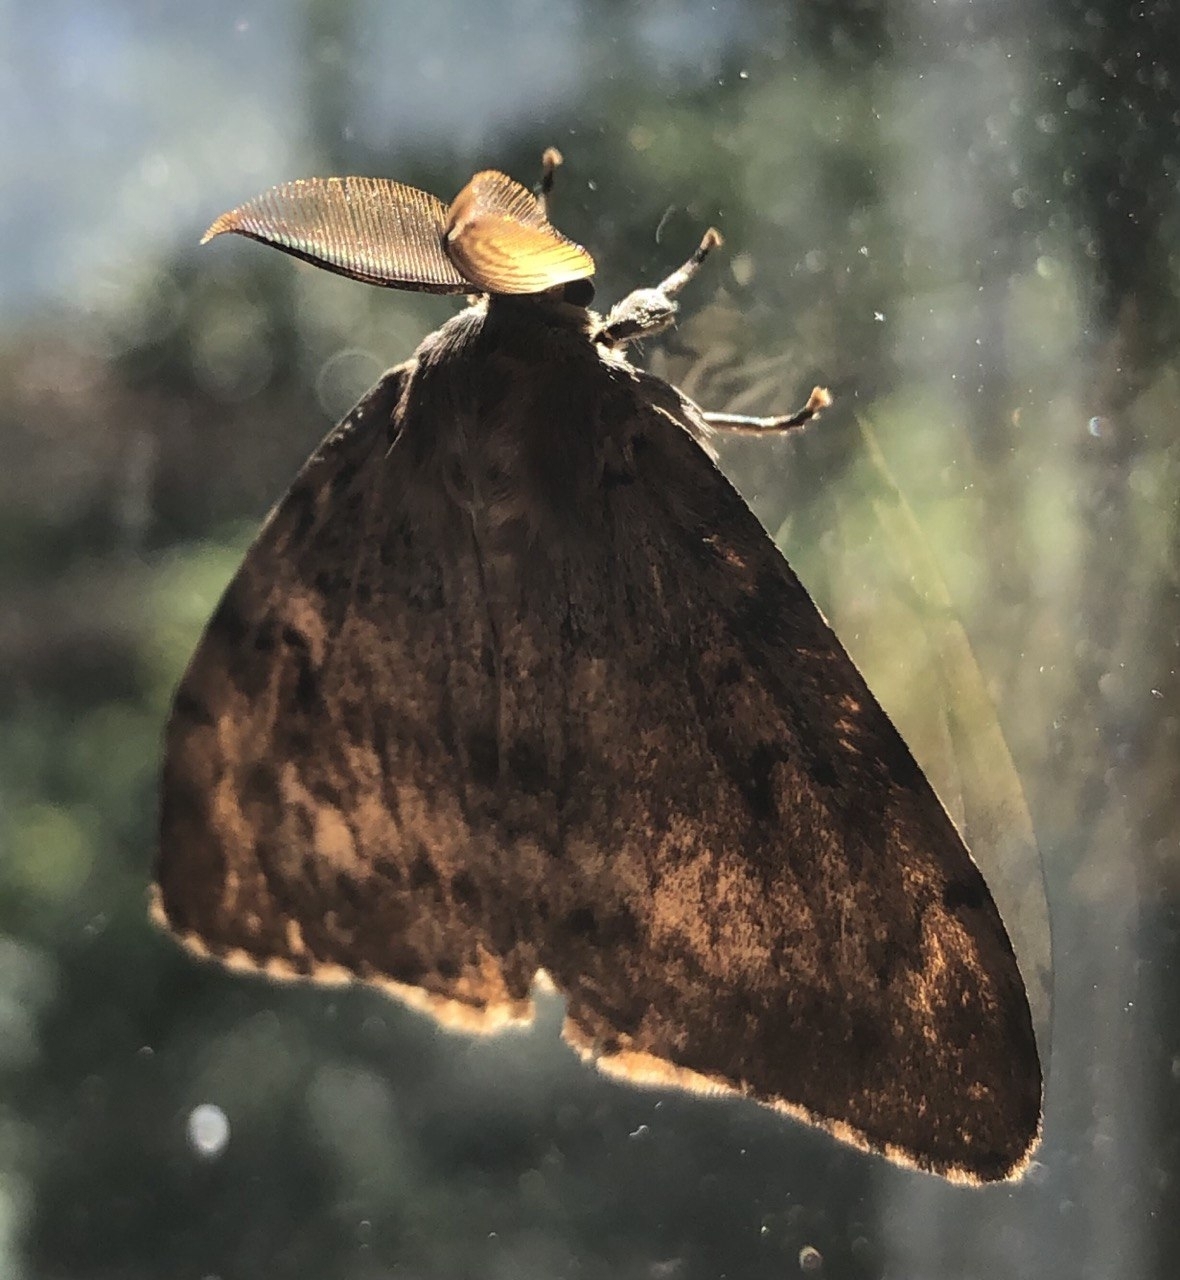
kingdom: Animalia
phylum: Arthropoda
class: Insecta
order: Lepidoptera
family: Erebidae
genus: Lymantria
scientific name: Lymantria dispar
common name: Gypsy moth
